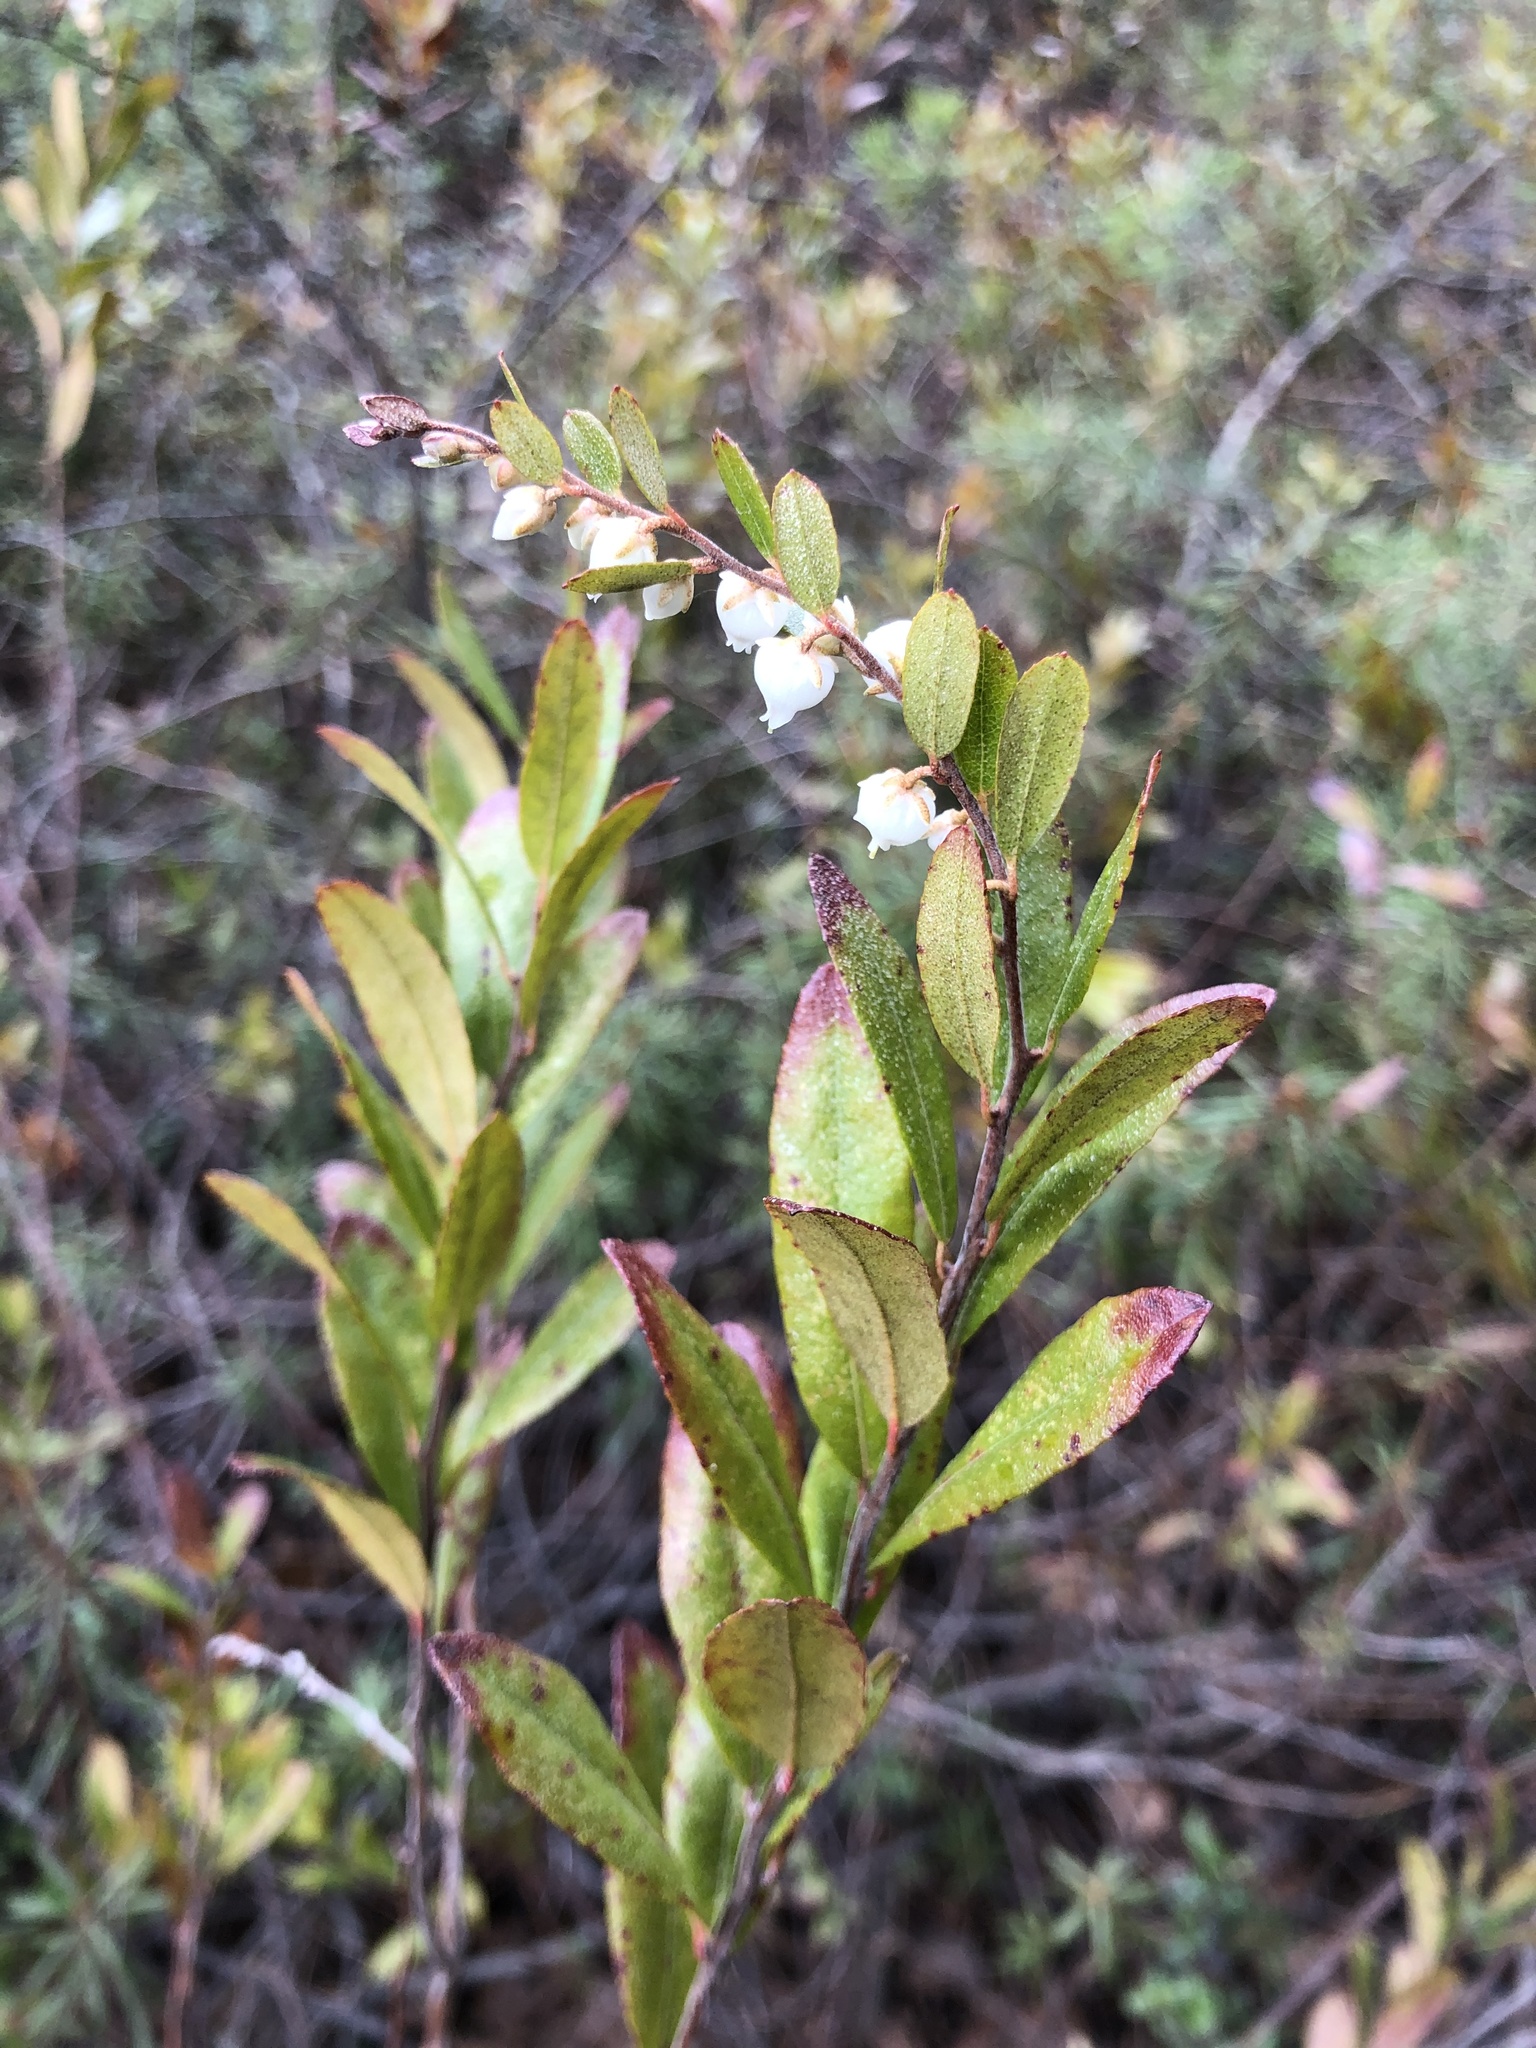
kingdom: Plantae
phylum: Tracheophyta
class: Magnoliopsida
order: Ericales
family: Ericaceae
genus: Chamaedaphne
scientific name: Chamaedaphne calyculata
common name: Leatherleaf
